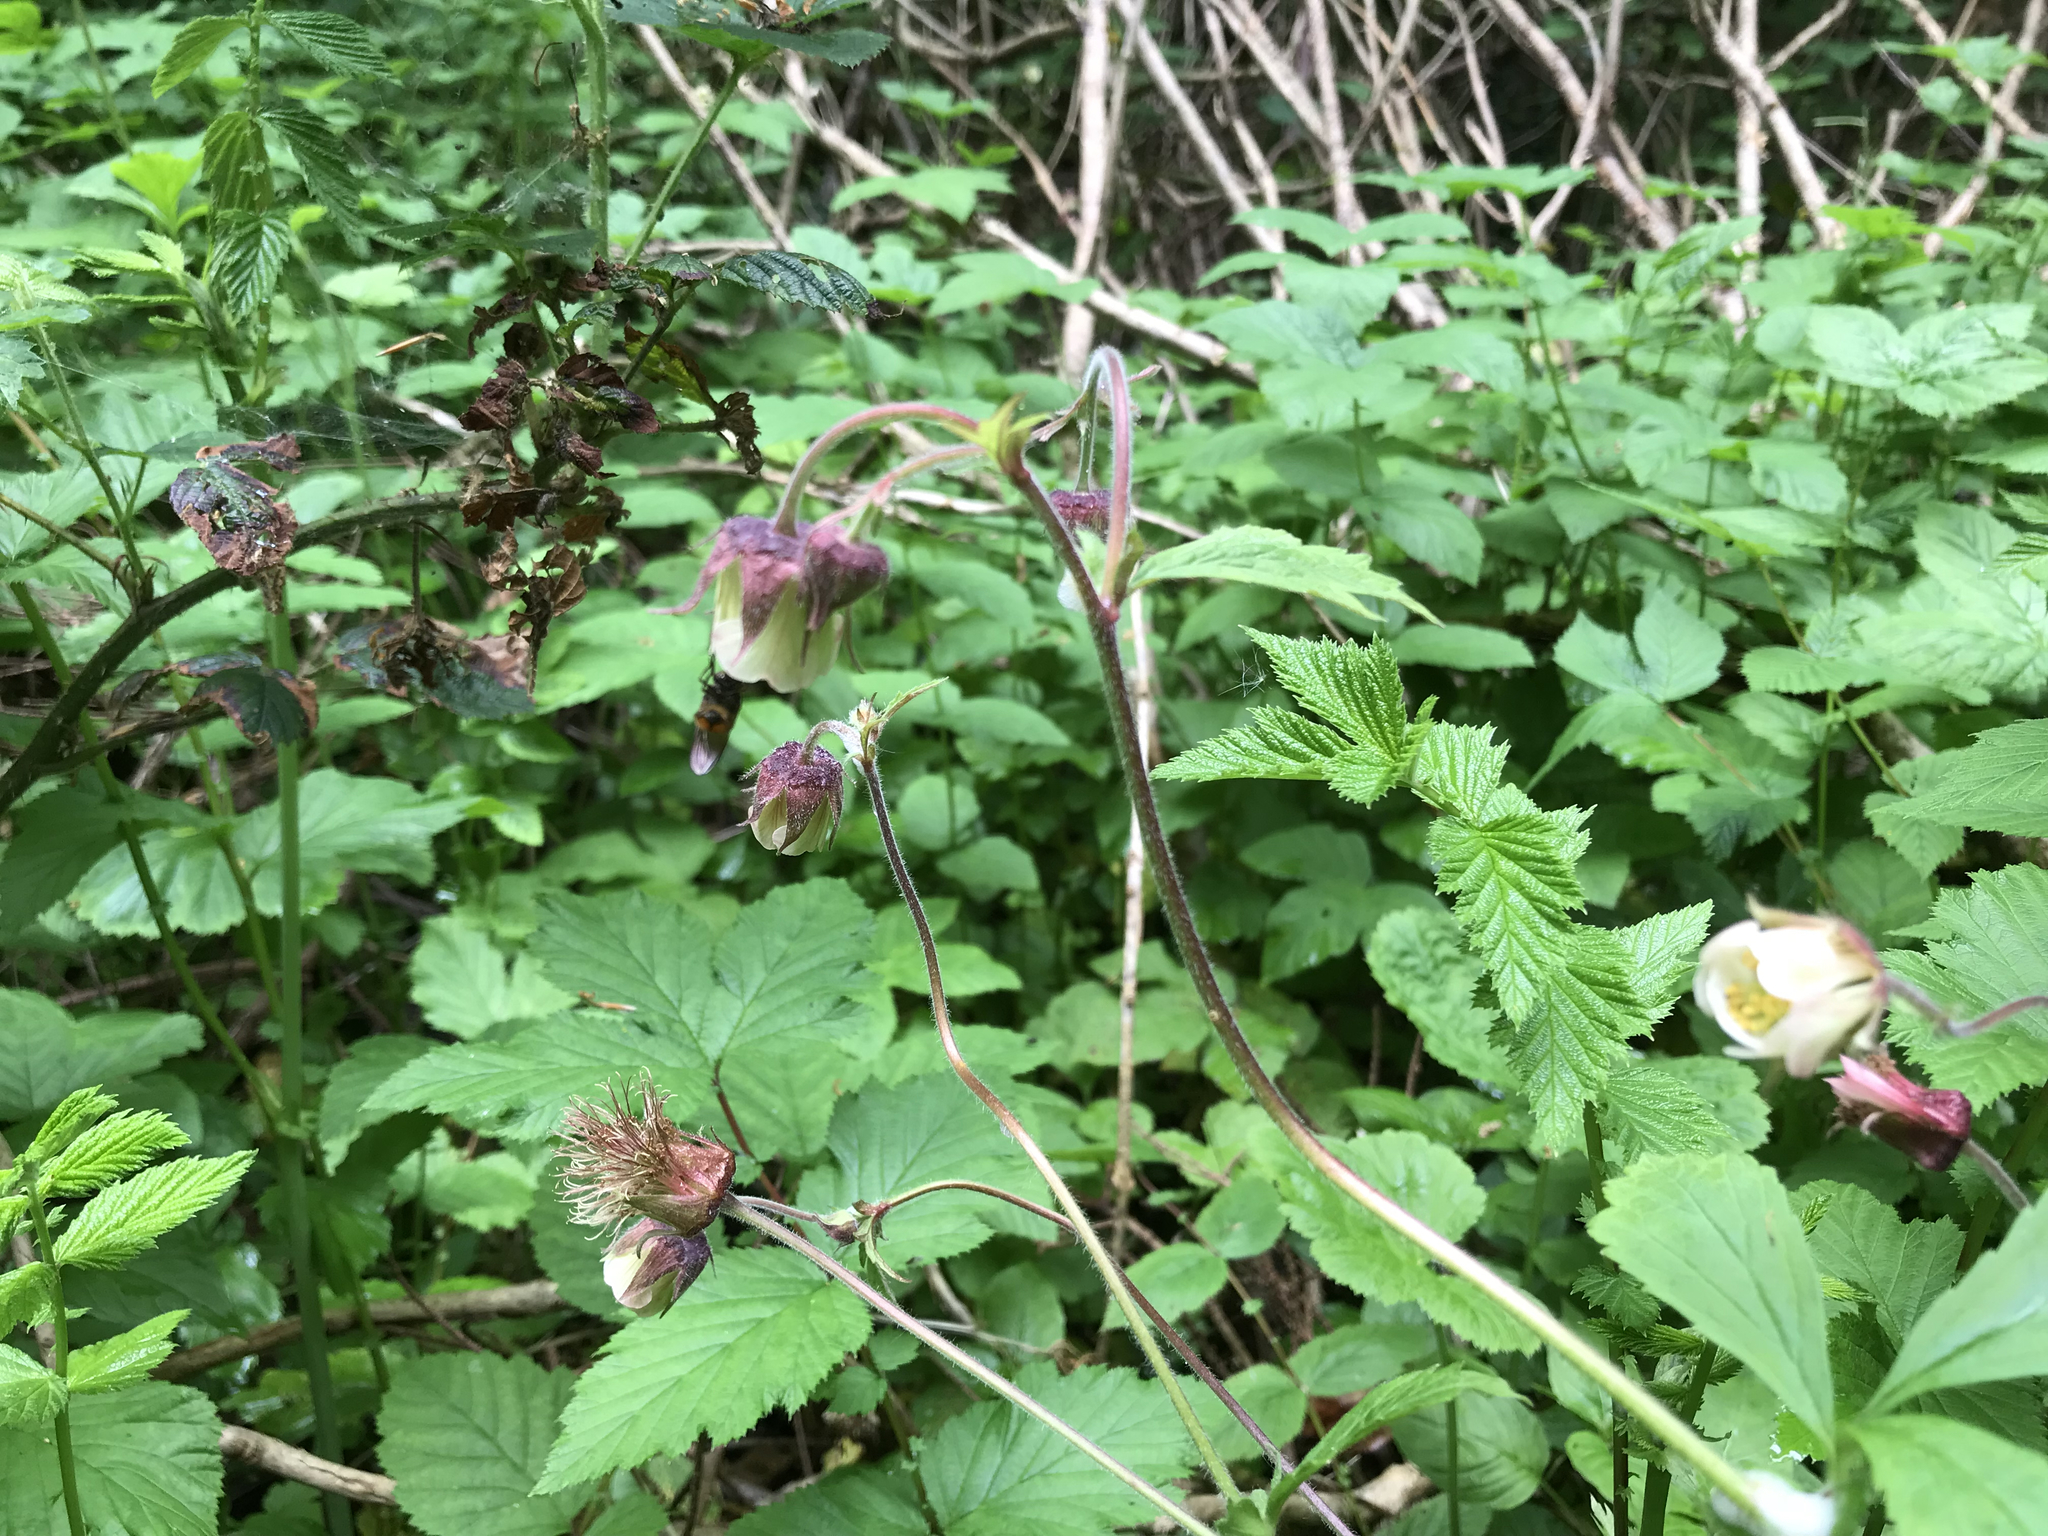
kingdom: Plantae
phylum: Tracheophyta
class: Magnoliopsida
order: Rosales
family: Rosaceae
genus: Geum
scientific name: Geum rivale
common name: Water avens
